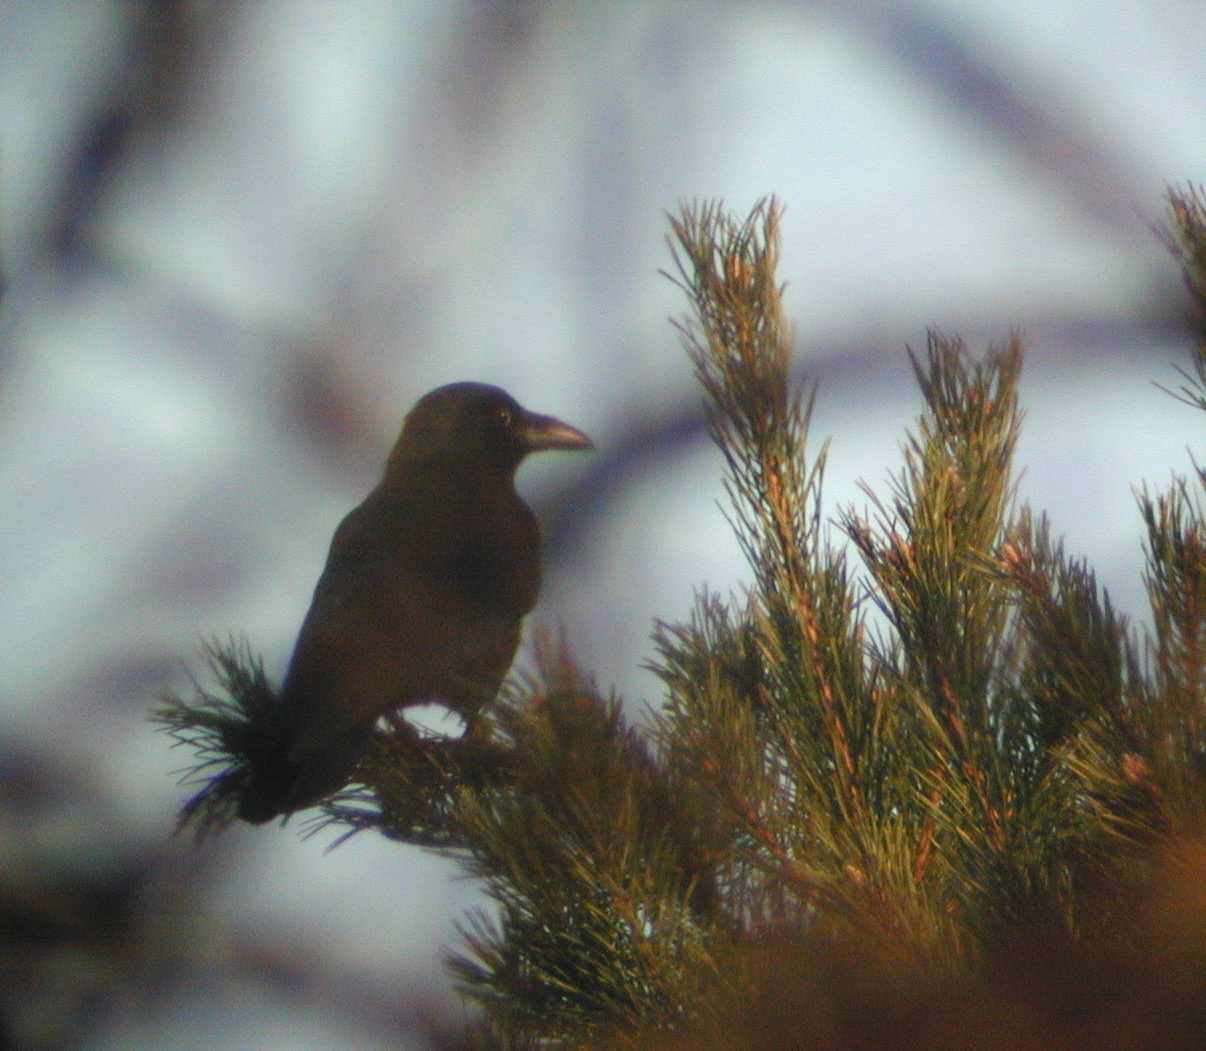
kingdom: Animalia
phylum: Chordata
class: Aves
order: Passeriformes
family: Corvidae
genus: Corvus
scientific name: Corvus corone
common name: Carrion crow
